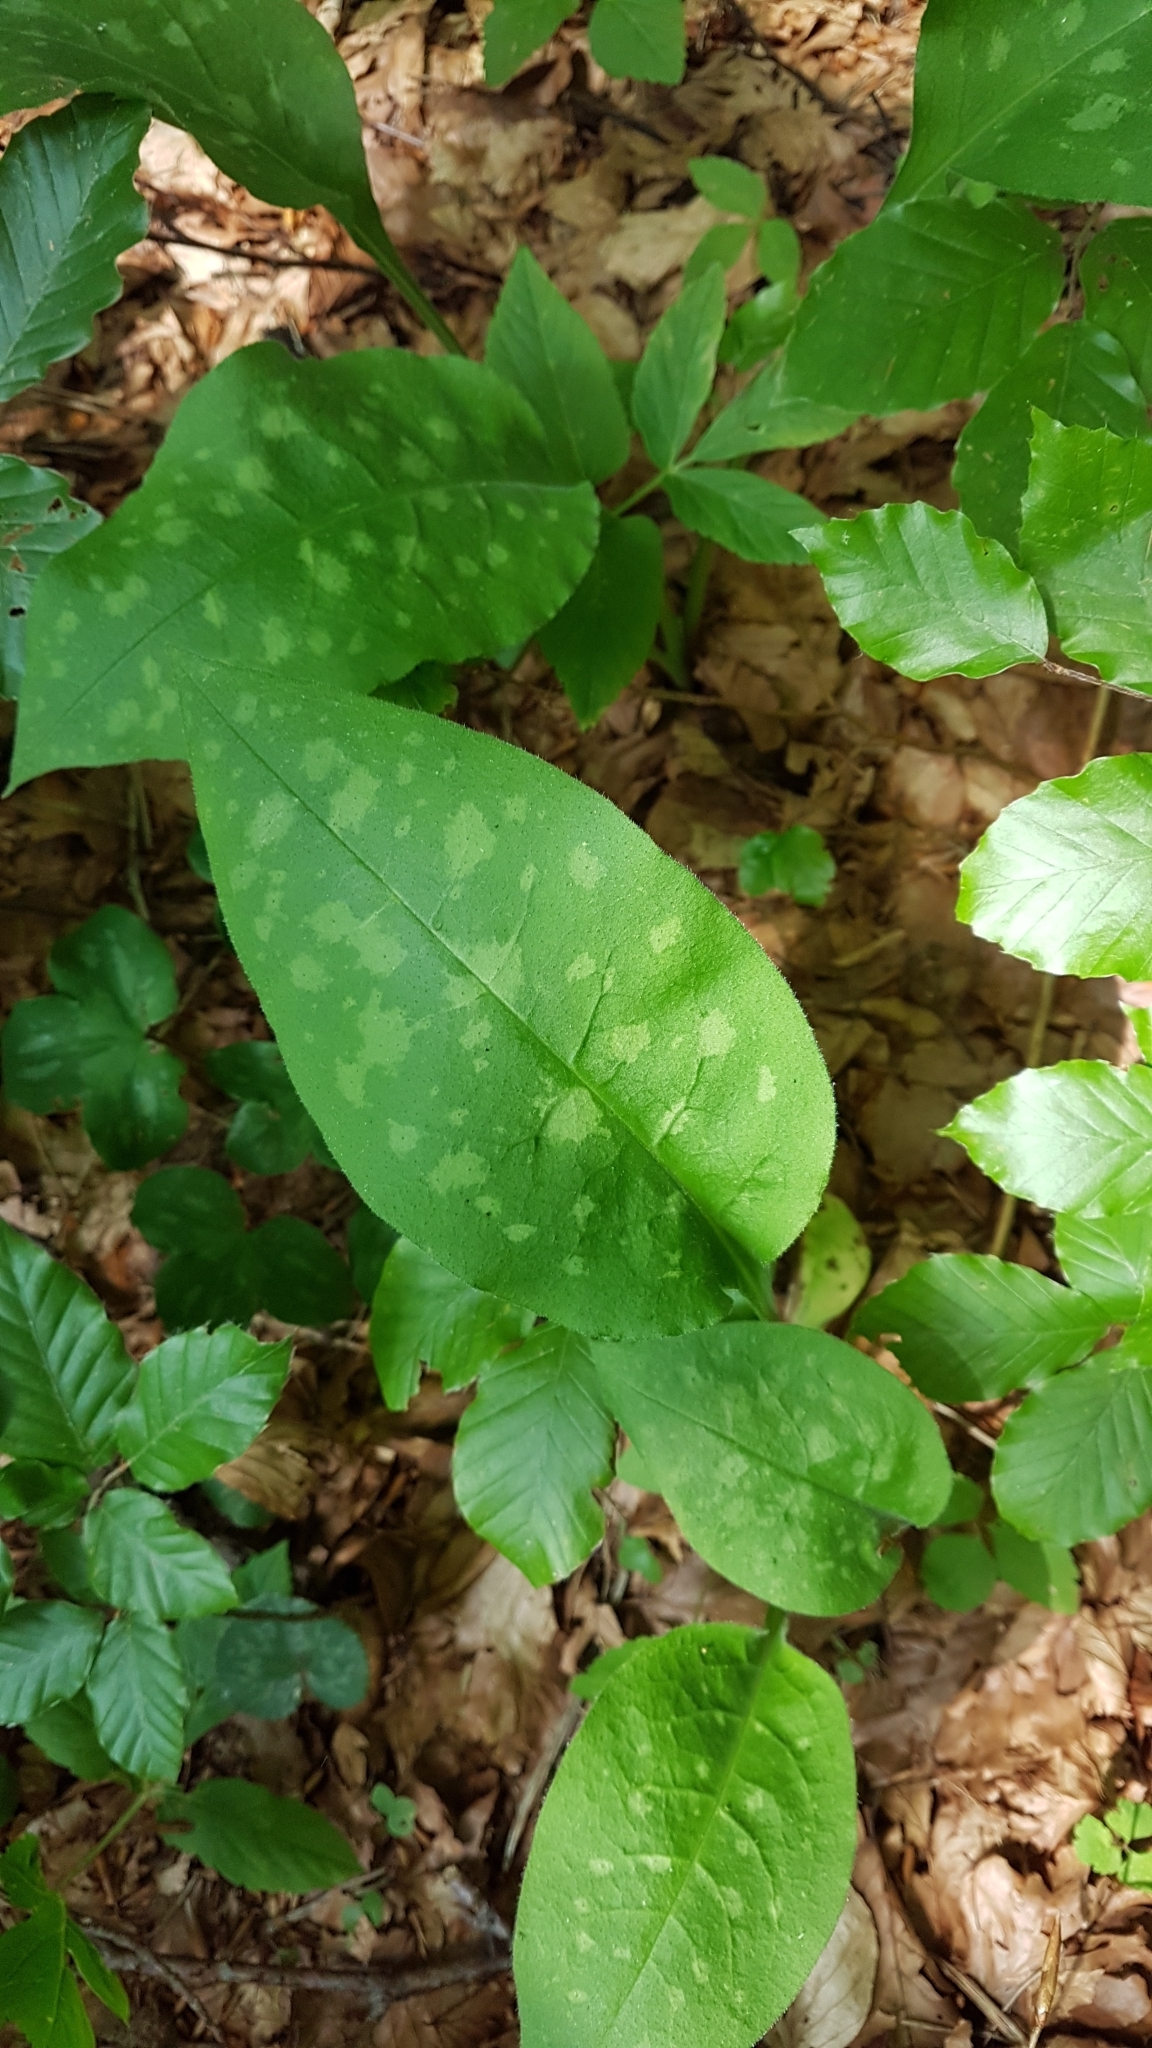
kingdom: Plantae
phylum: Tracheophyta
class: Magnoliopsida
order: Boraginales
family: Boraginaceae
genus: Pulmonaria
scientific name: Pulmonaria officinalis
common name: Lungwort
